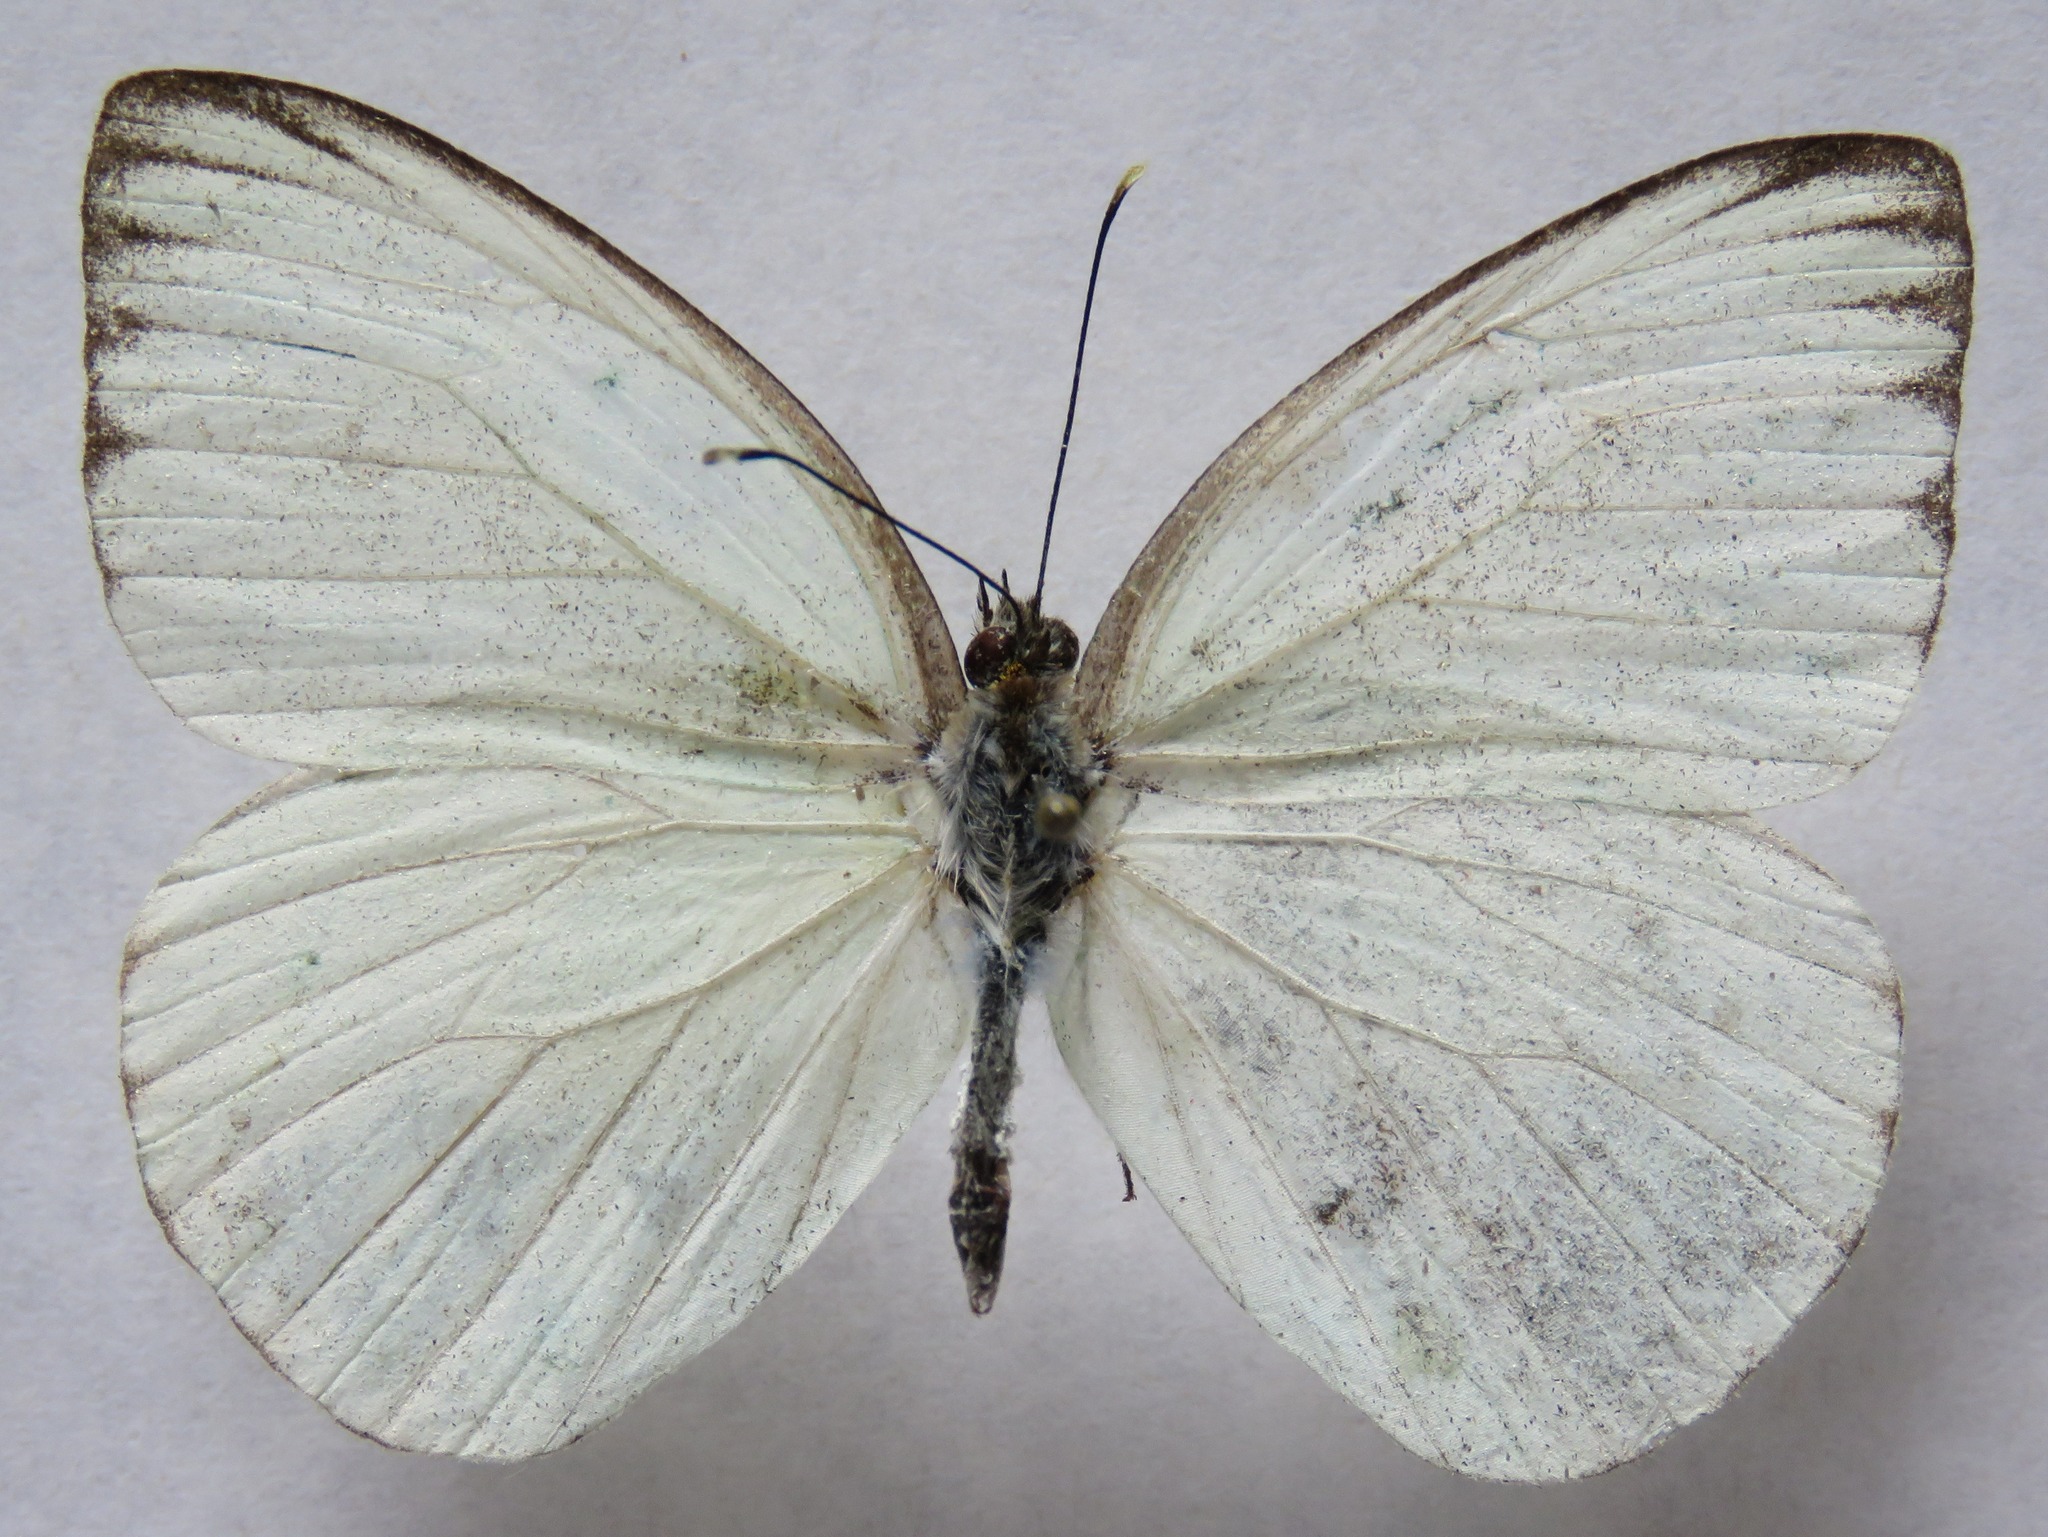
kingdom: Animalia
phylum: Arthropoda
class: Insecta
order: Lepidoptera
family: Pieridae
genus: Ascia
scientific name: Ascia monuste
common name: Great southern white
